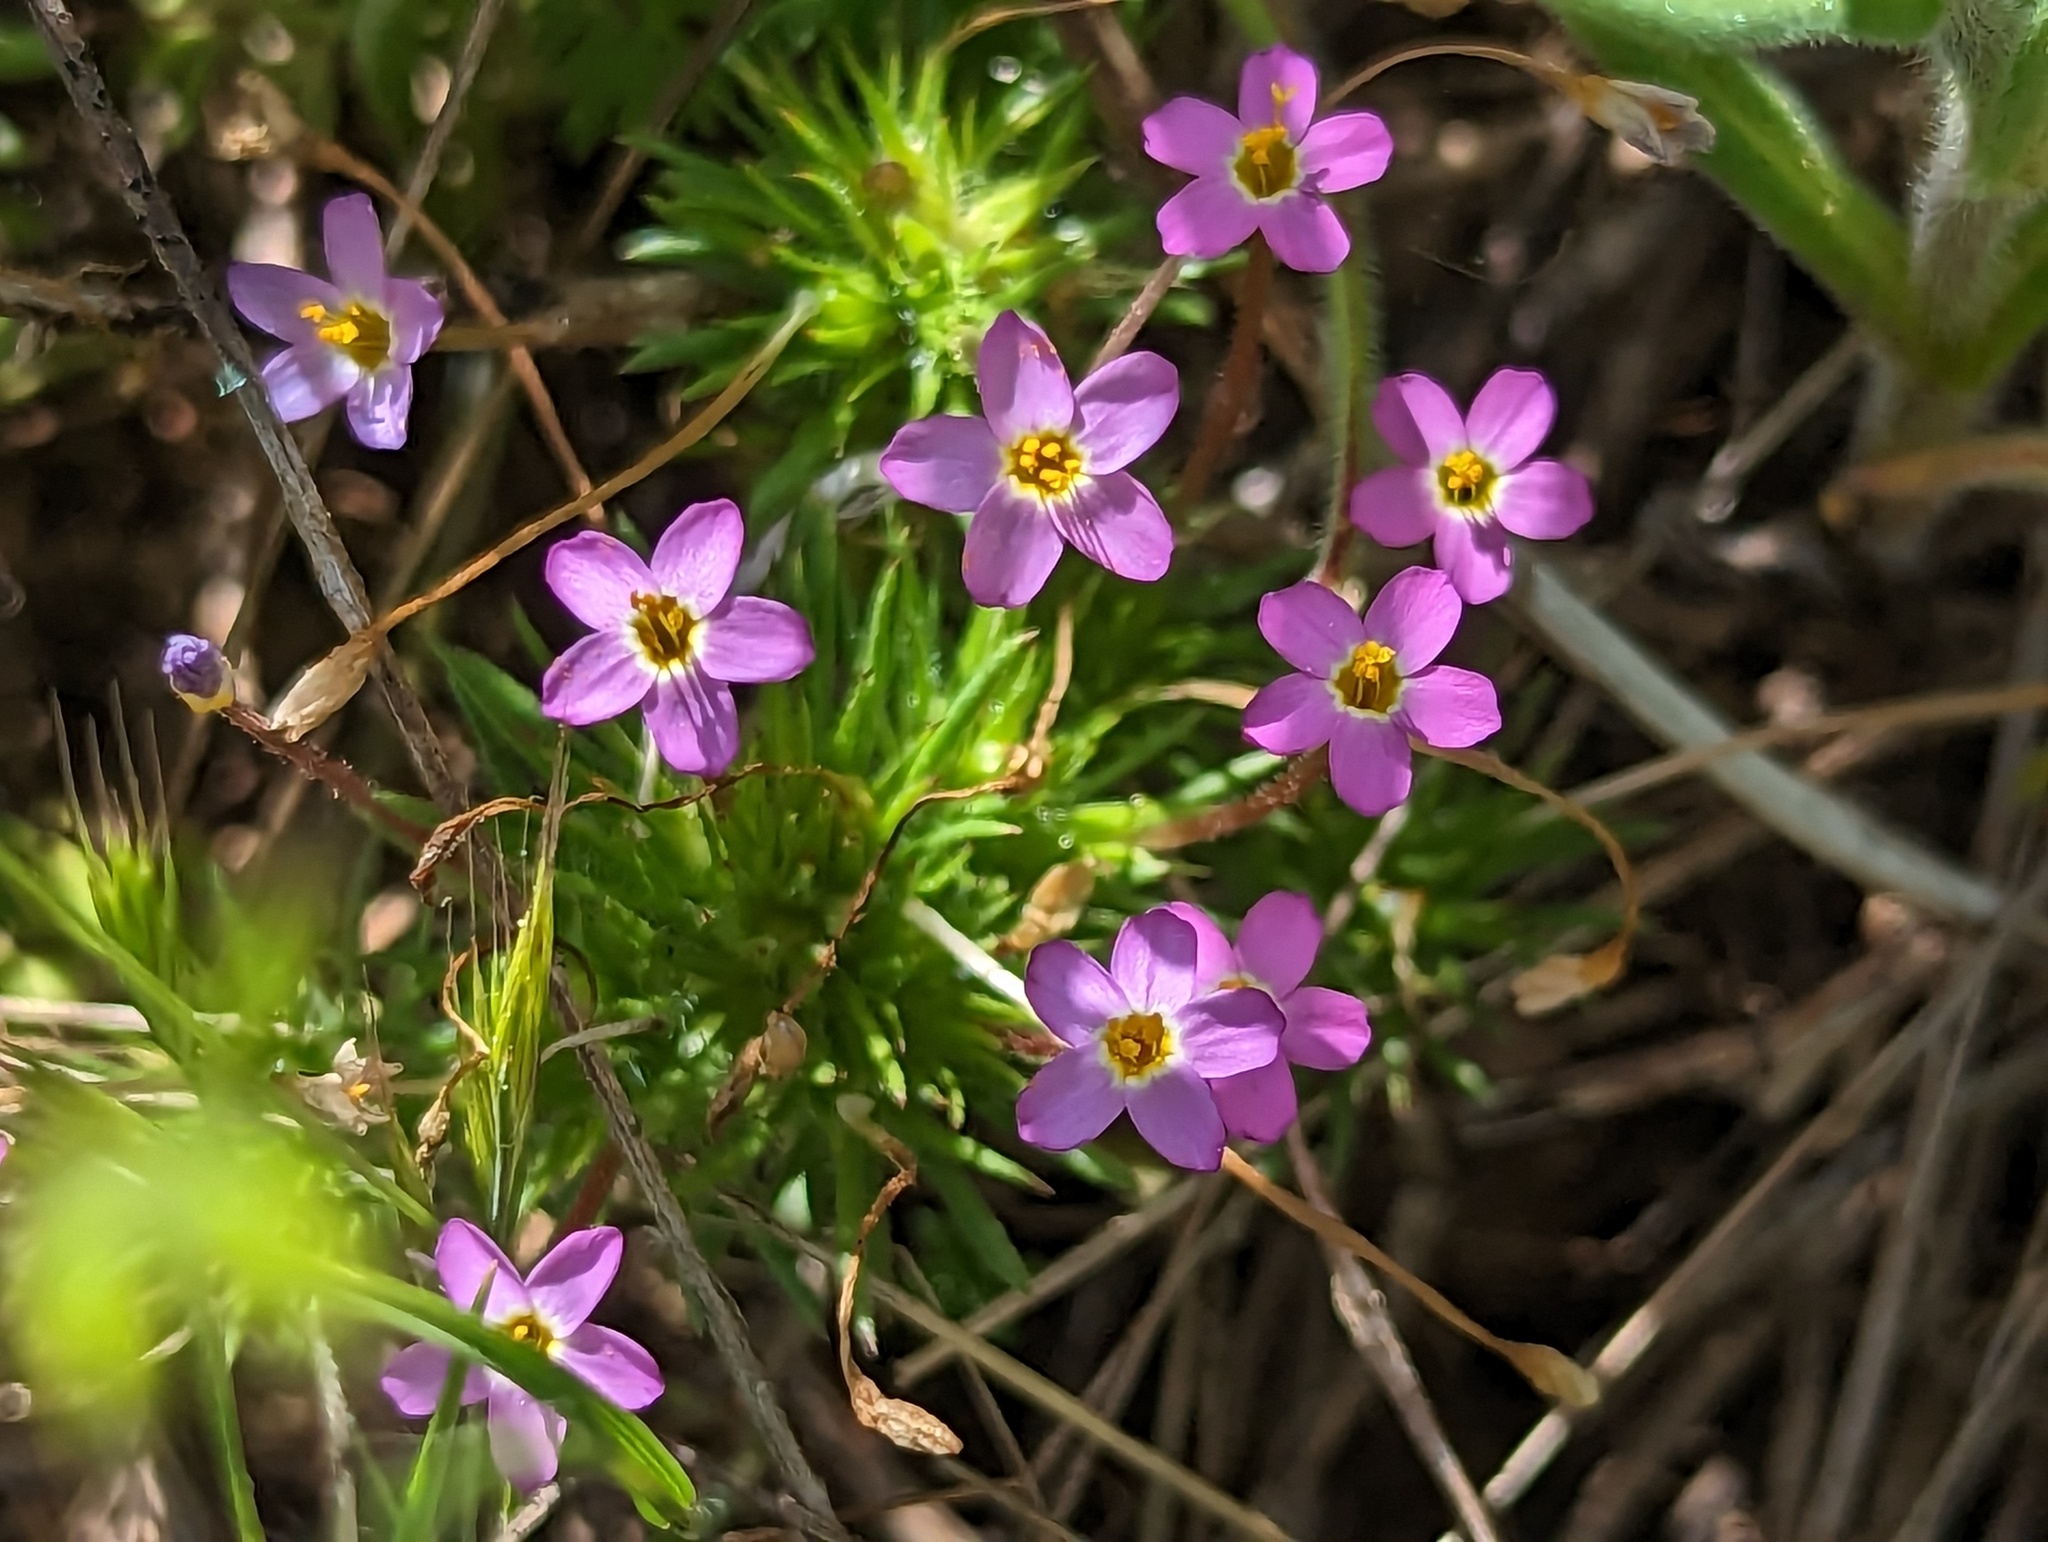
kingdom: Plantae
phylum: Tracheophyta
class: Magnoliopsida
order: Ericales
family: Polemoniaceae
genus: Leptosiphon
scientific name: Leptosiphon bicolor
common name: True babystars
